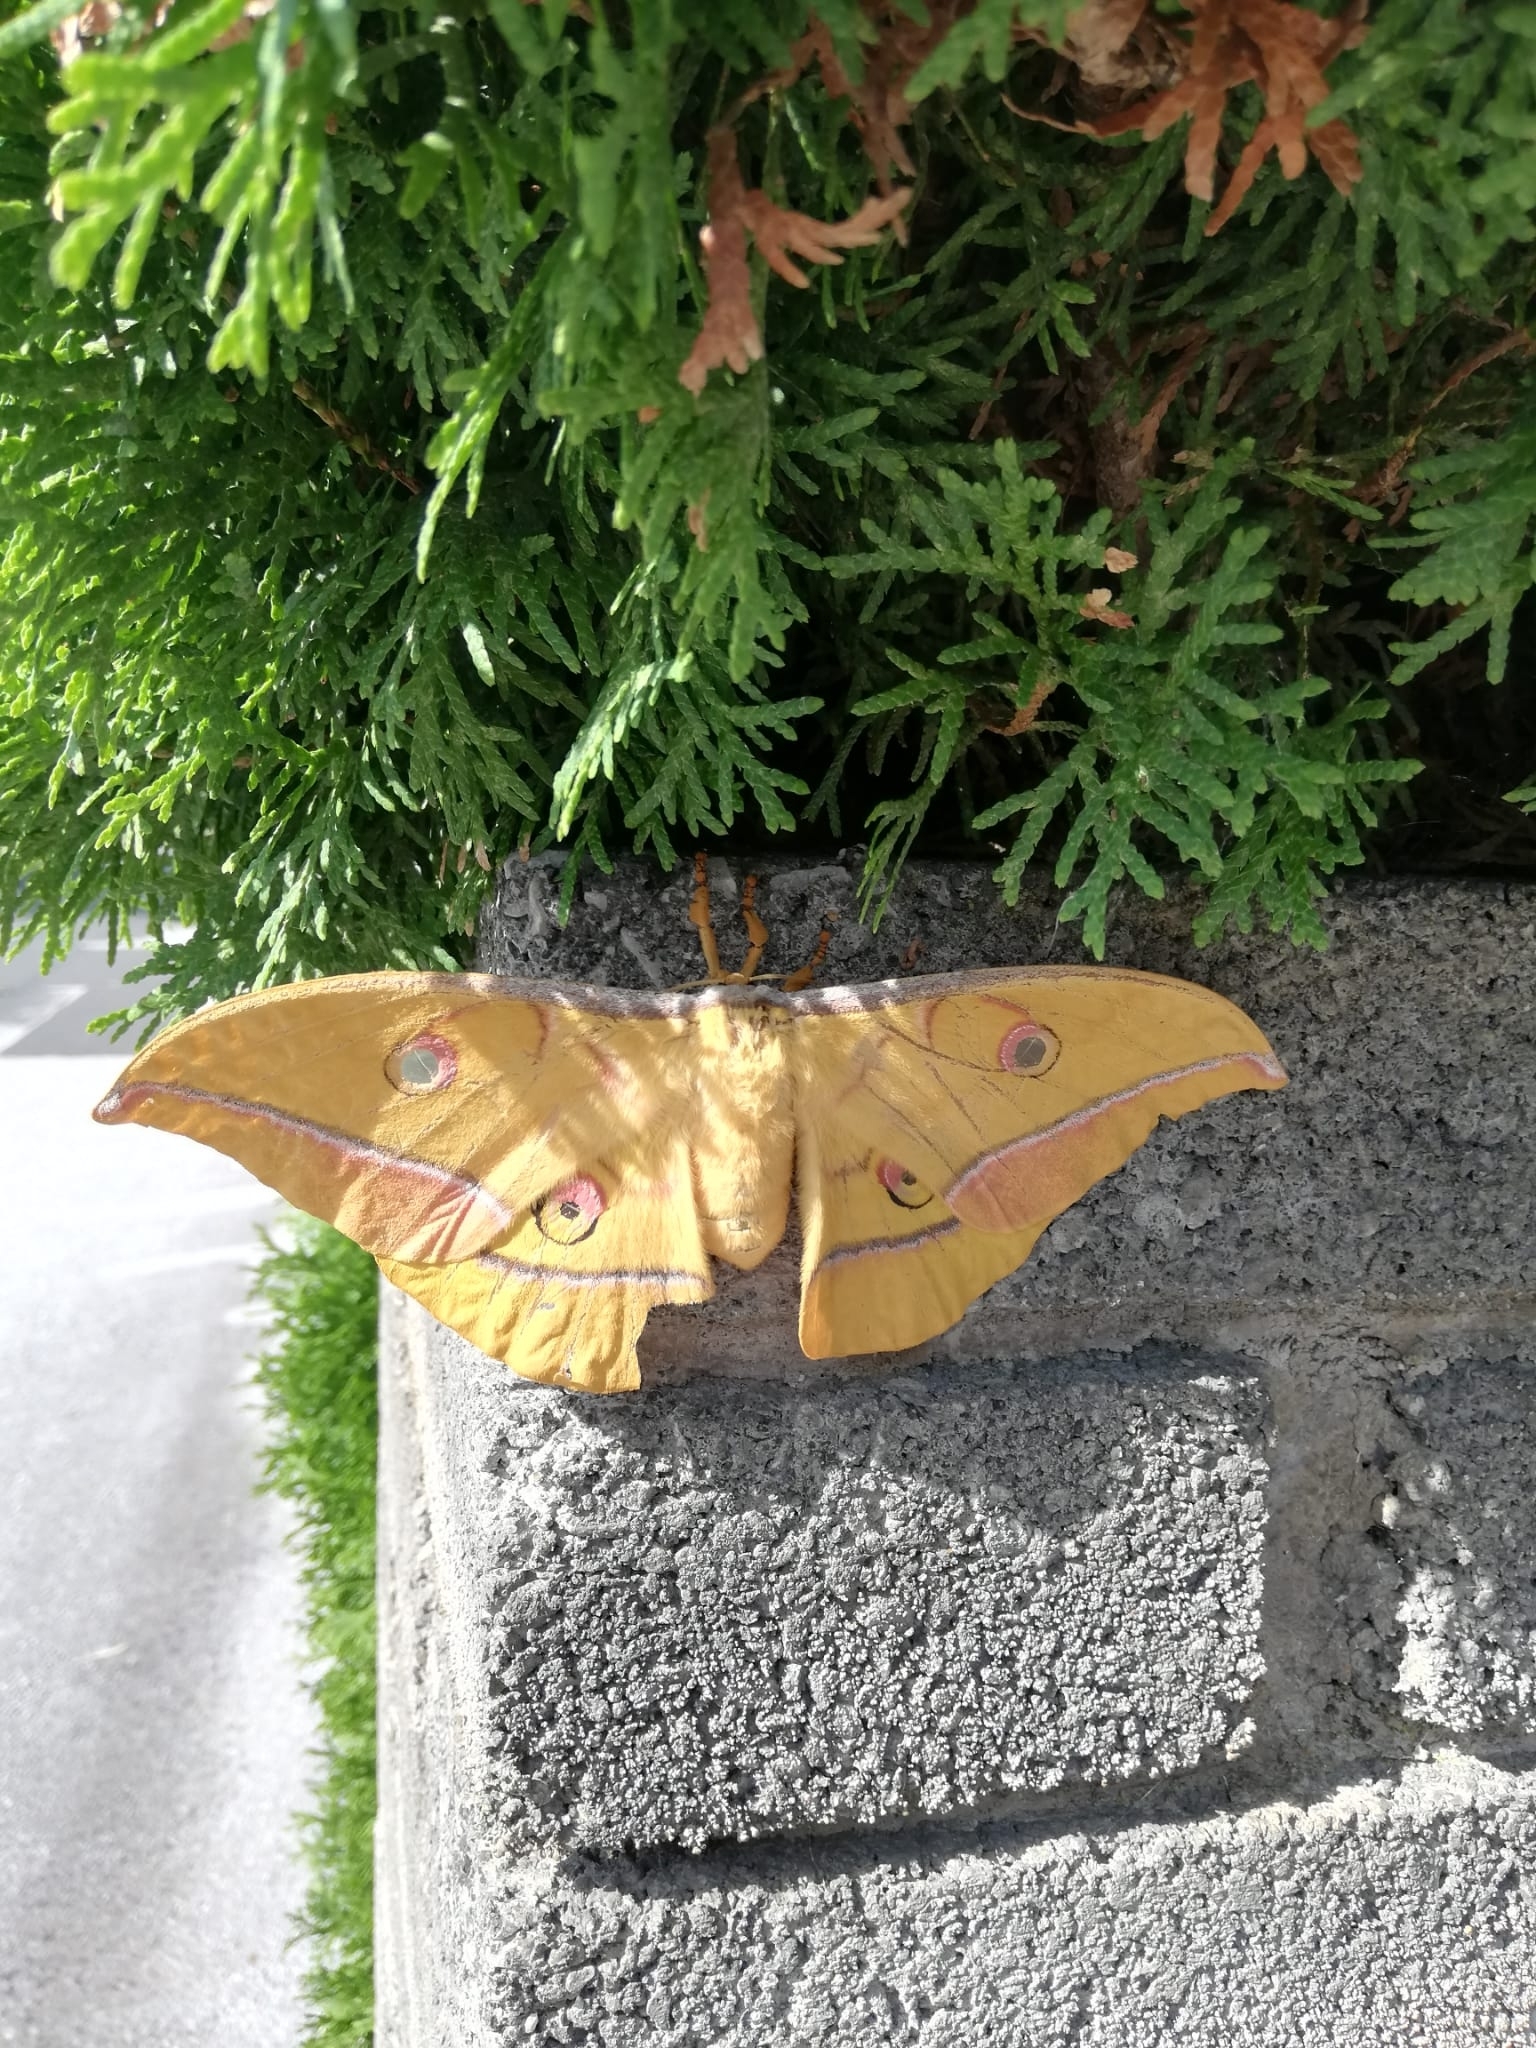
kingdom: Animalia
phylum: Arthropoda
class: Insecta
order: Lepidoptera
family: Saturniidae
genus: Antheraea
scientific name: Antheraea yamamai
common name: Japanese oak silk moth
